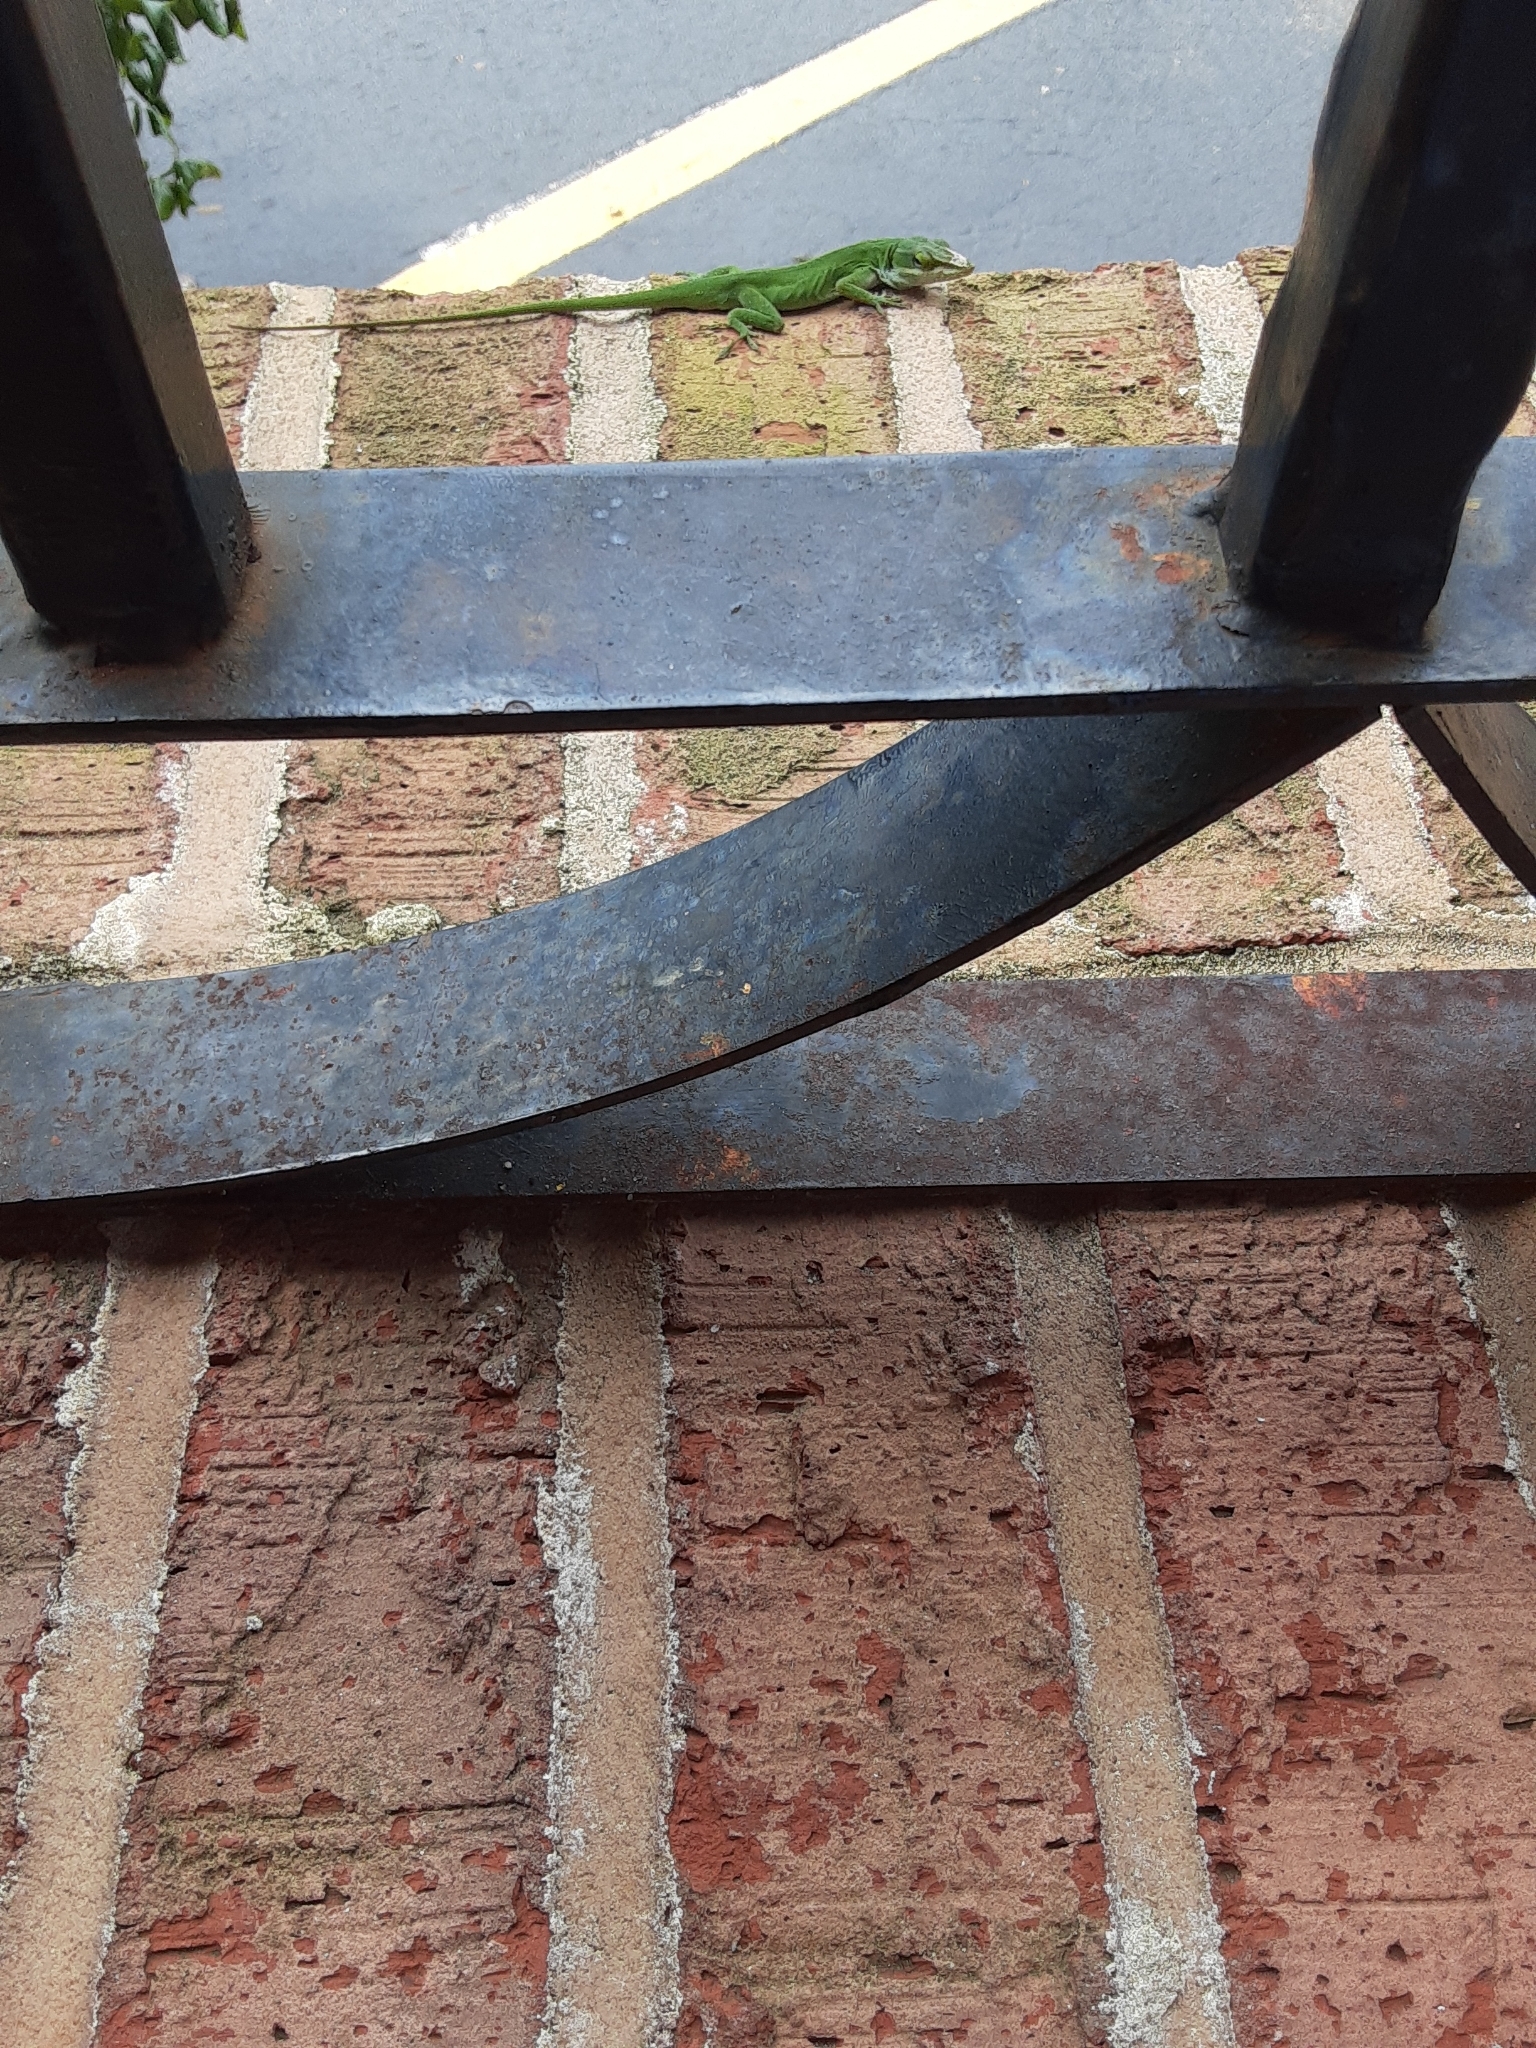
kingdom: Animalia
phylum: Chordata
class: Squamata
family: Dactyloidae
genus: Anolis
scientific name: Anolis carolinensis
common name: Green anole
